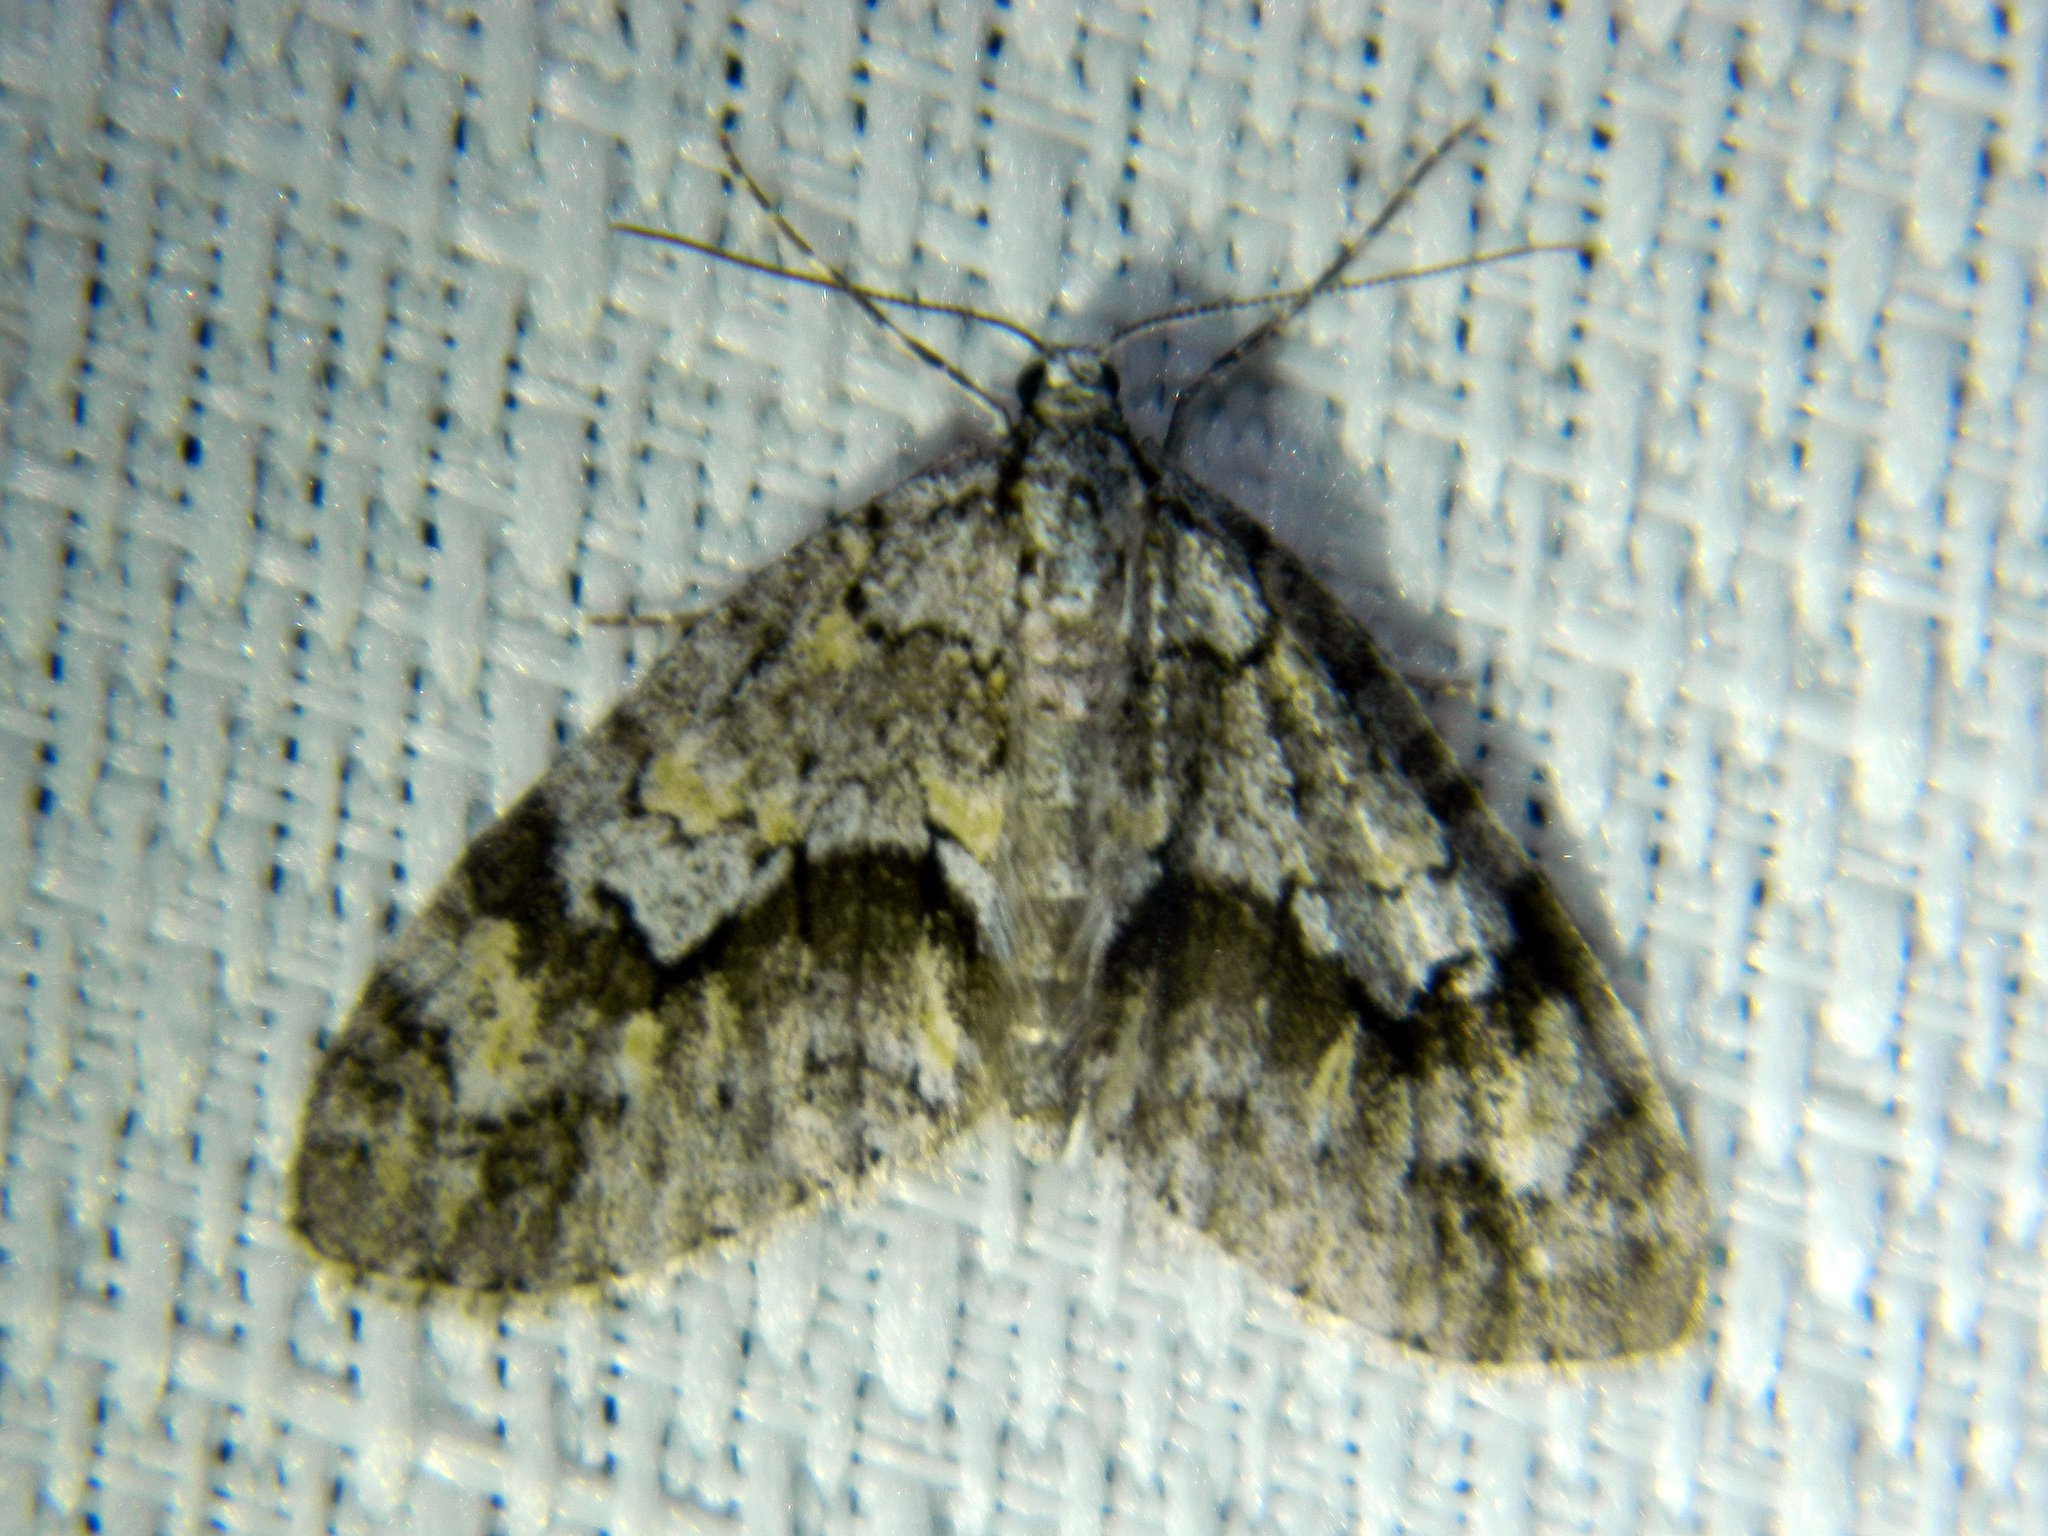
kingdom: Animalia
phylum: Arthropoda
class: Insecta
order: Lepidoptera
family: Geometridae
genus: Cladara
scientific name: Cladara limitaria
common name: Mottled gray carpet
